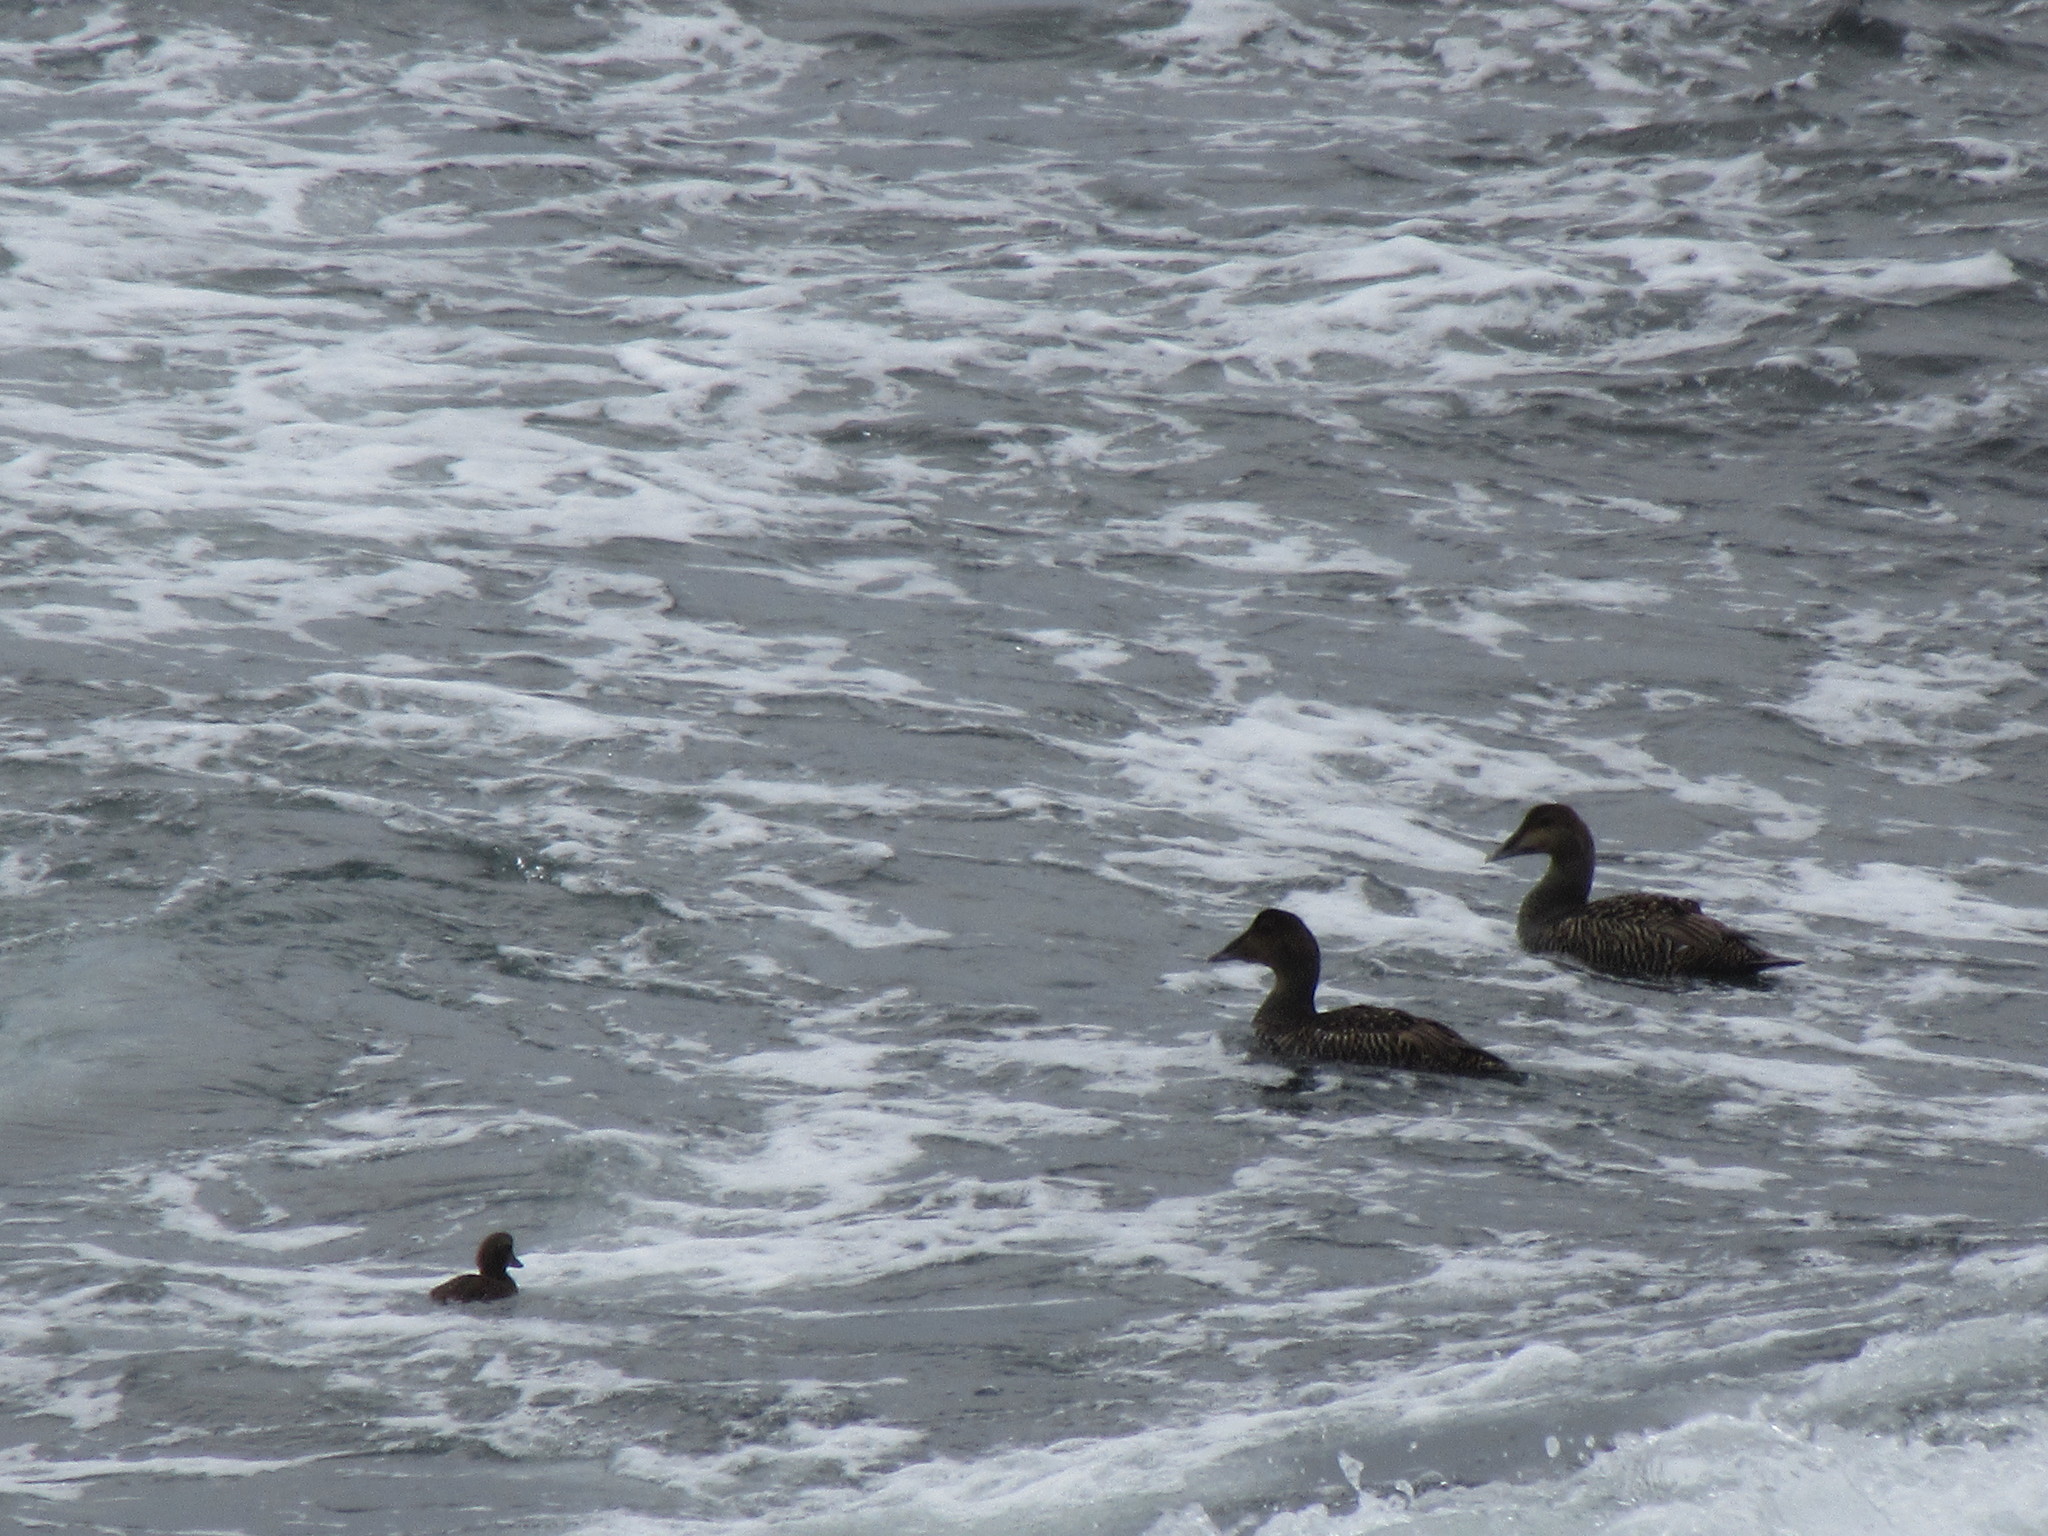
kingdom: Animalia
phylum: Chordata
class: Aves
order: Anseriformes
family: Anatidae
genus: Somateria
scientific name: Somateria mollissima
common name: Common eider
